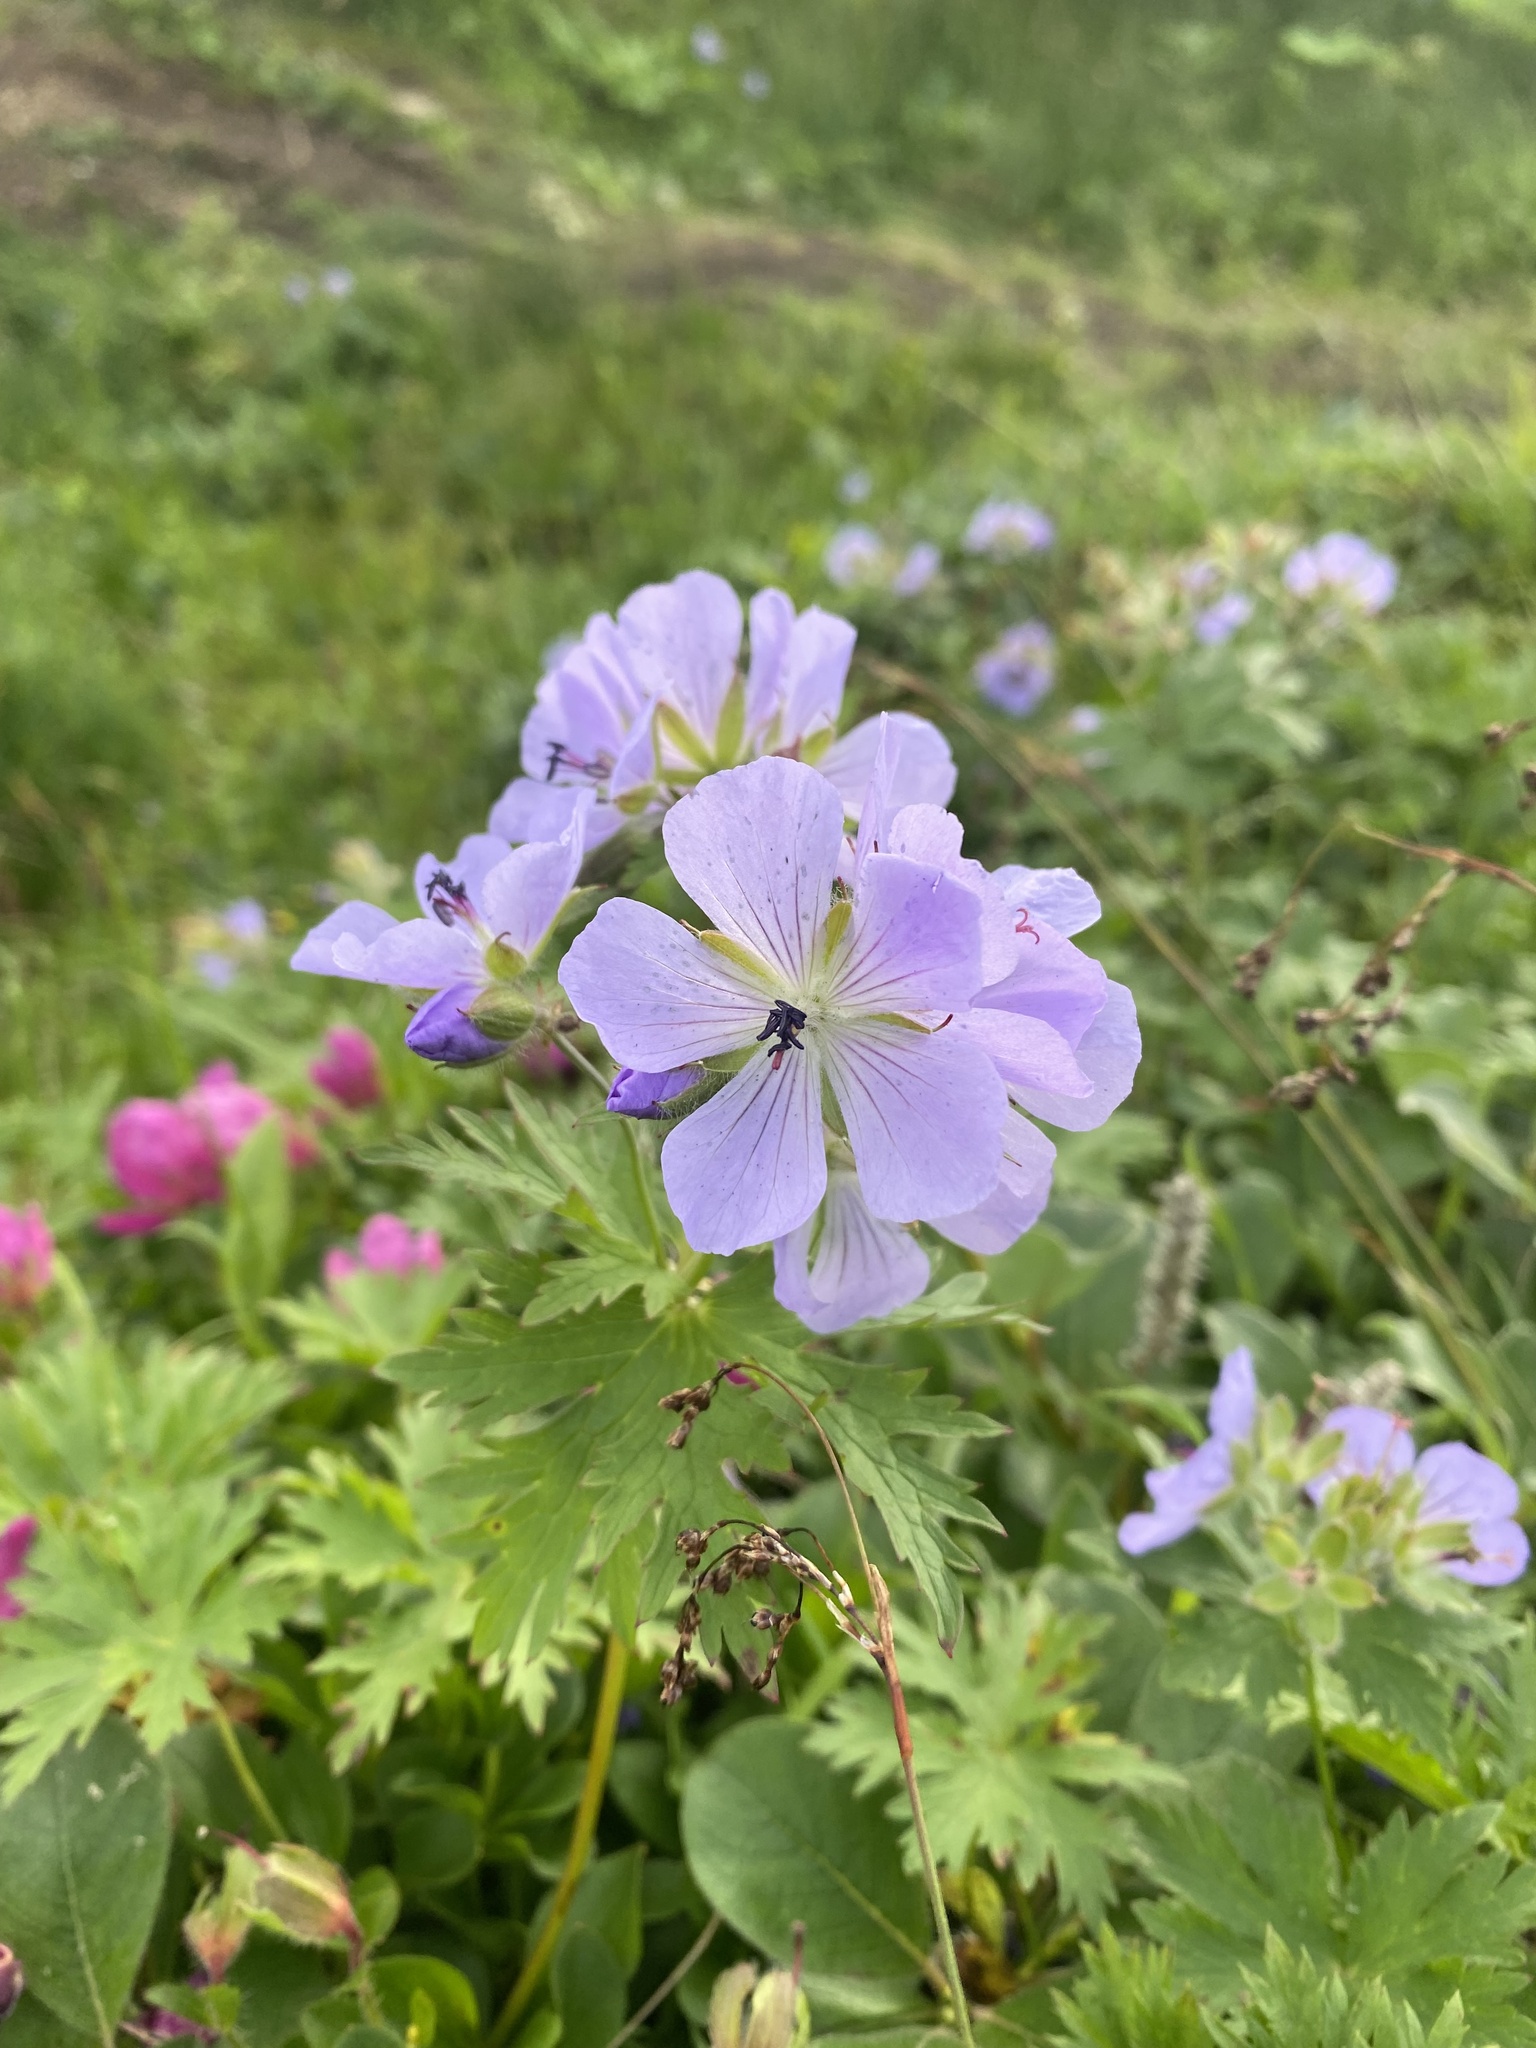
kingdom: Plantae
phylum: Tracheophyta
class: Magnoliopsida
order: Geraniales
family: Geraniaceae
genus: Geranium
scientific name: Geranium erianthum
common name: Northern crane's-bill
